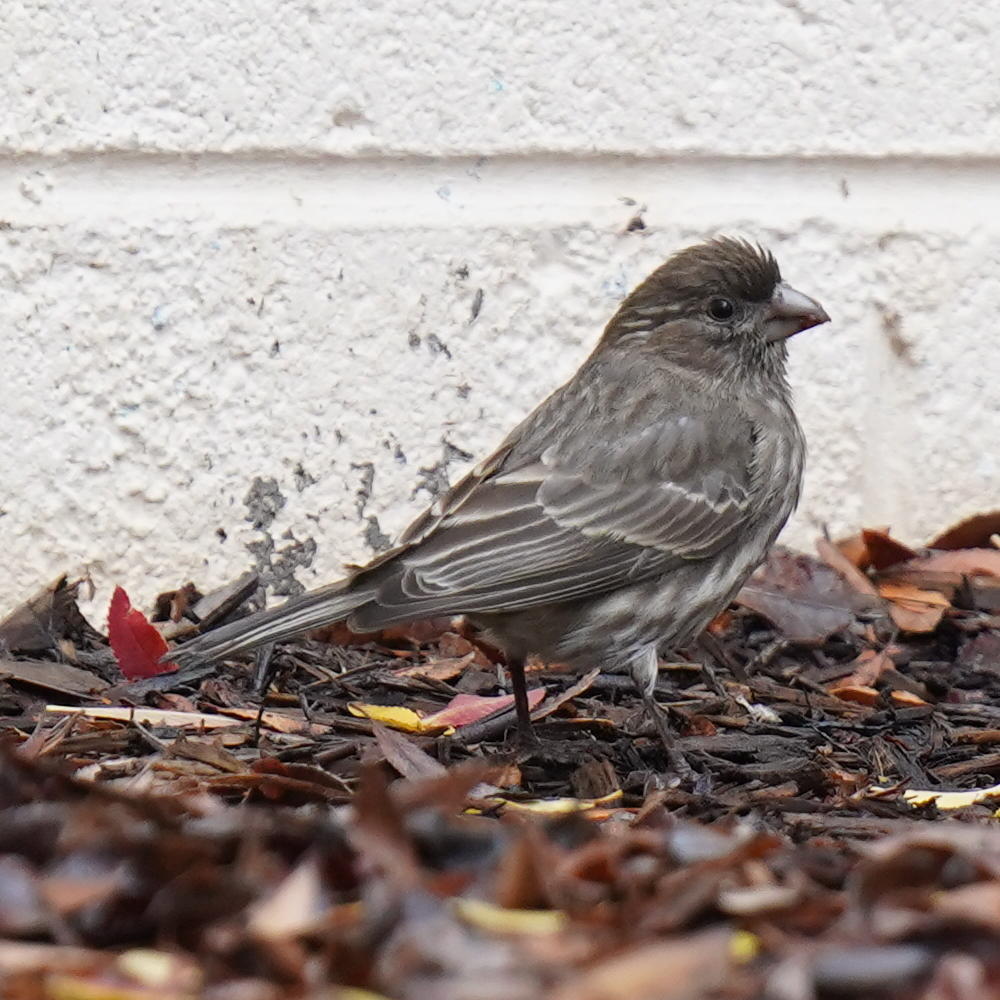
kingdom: Animalia
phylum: Chordata
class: Aves
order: Passeriformes
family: Fringillidae
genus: Haemorhous
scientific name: Haemorhous mexicanus
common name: House finch
